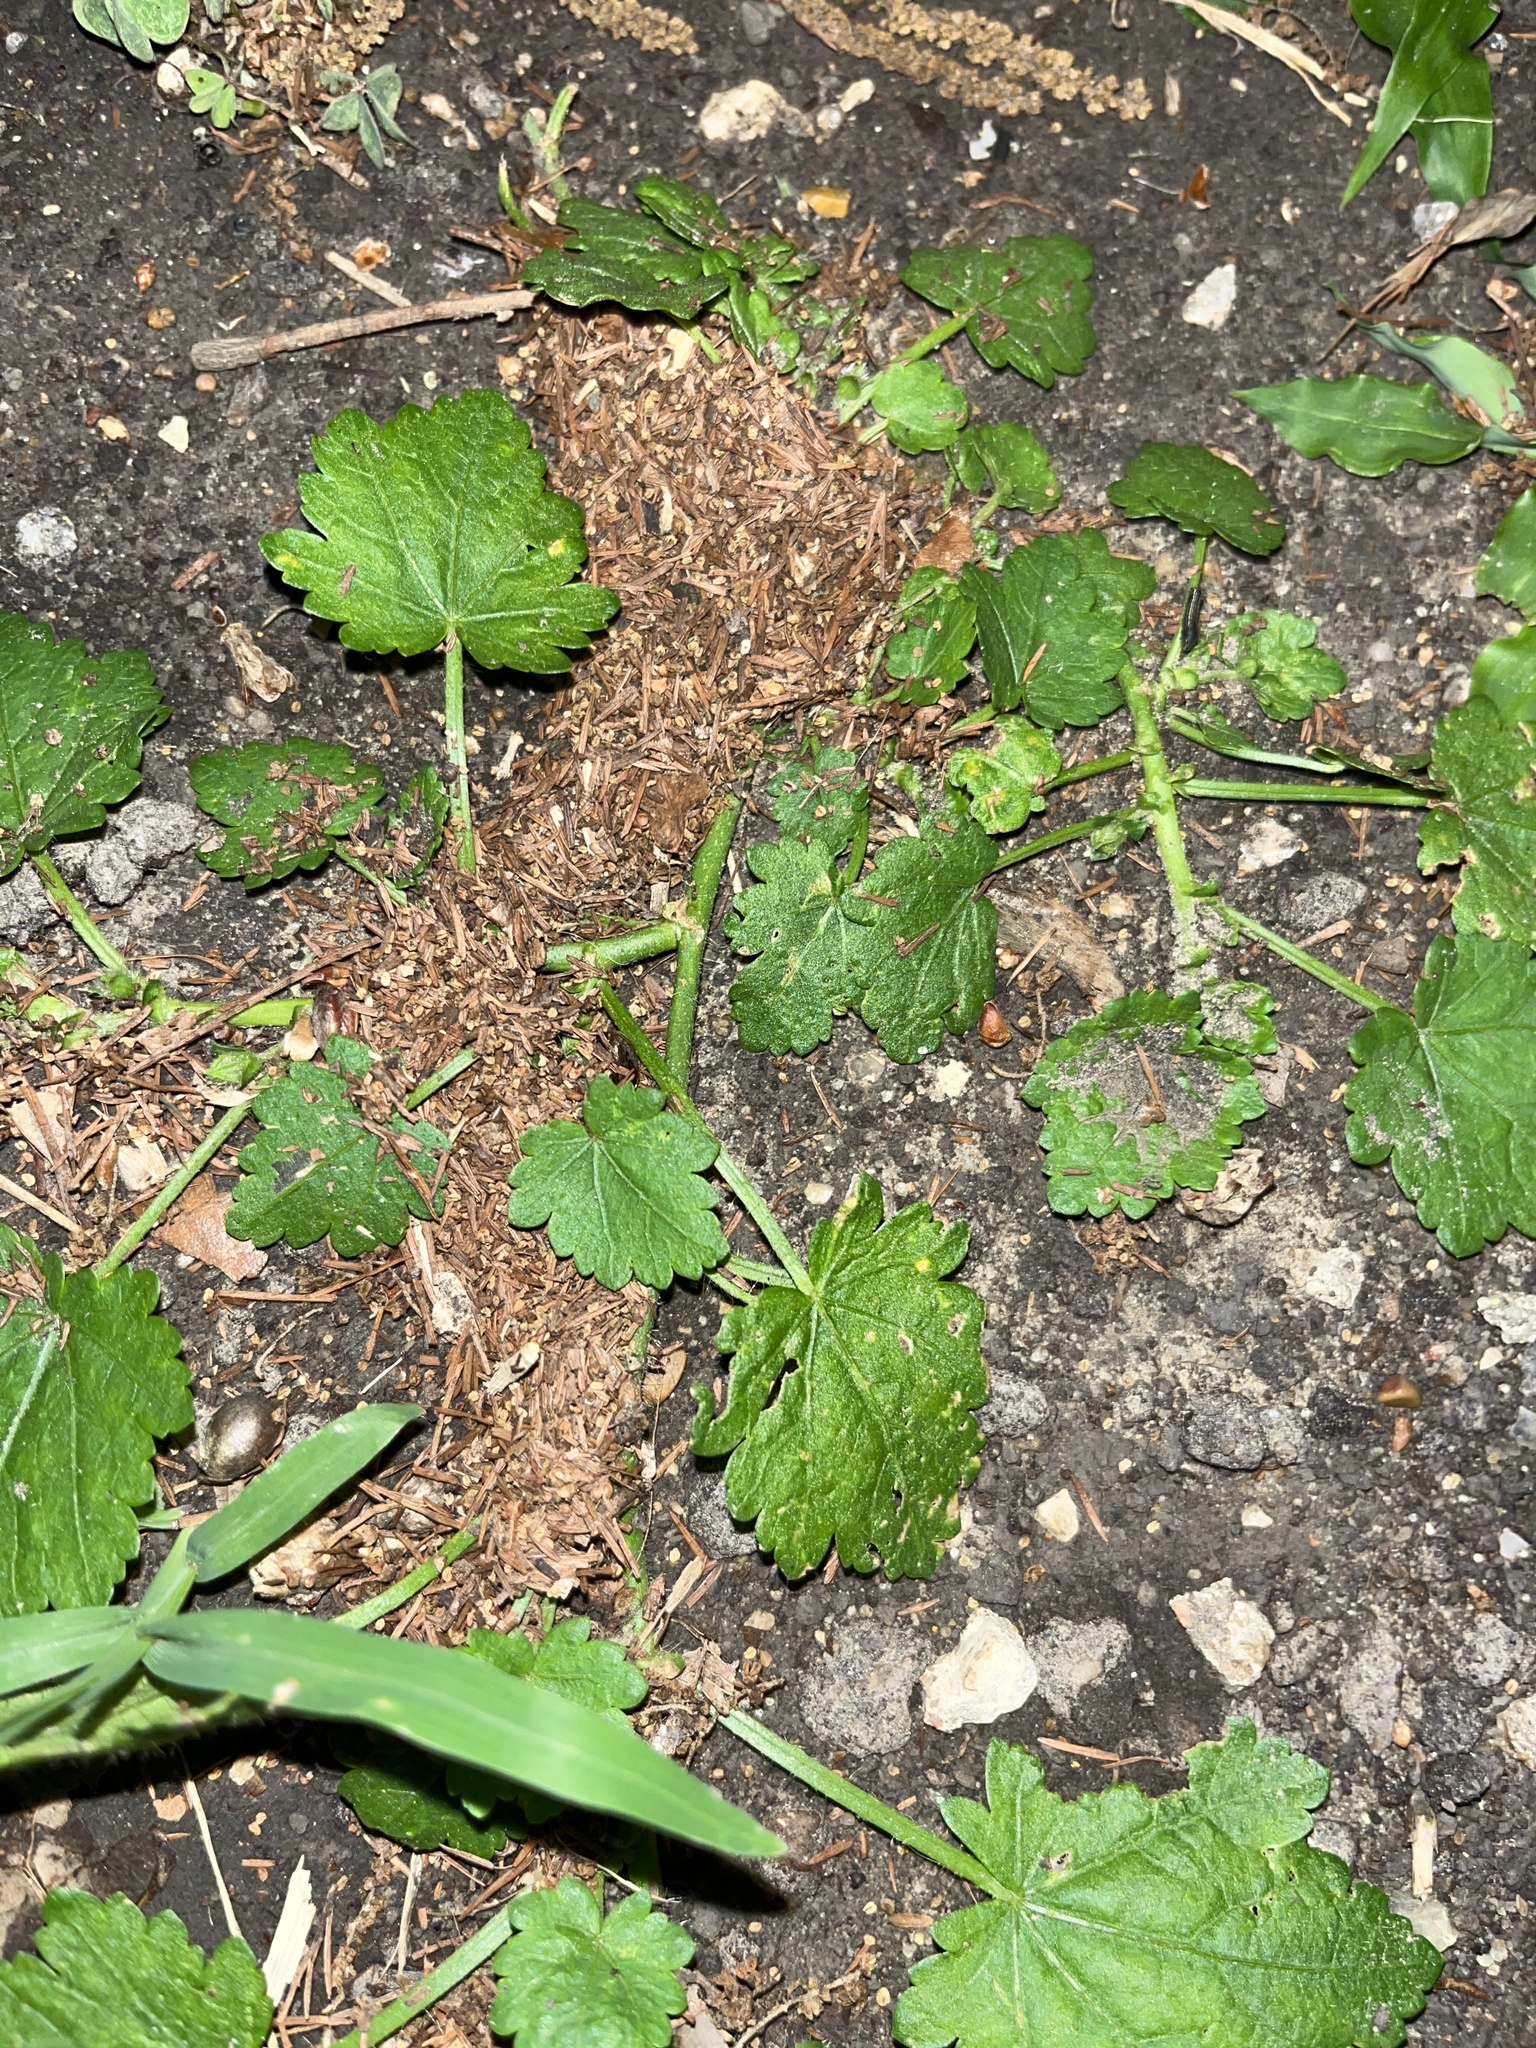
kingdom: Plantae
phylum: Tracheophyta
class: Magnoliopsida
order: Malvales
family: Malvaceae
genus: Modiola
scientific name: Modiola caroliniana
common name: Carolina bristlemallow
